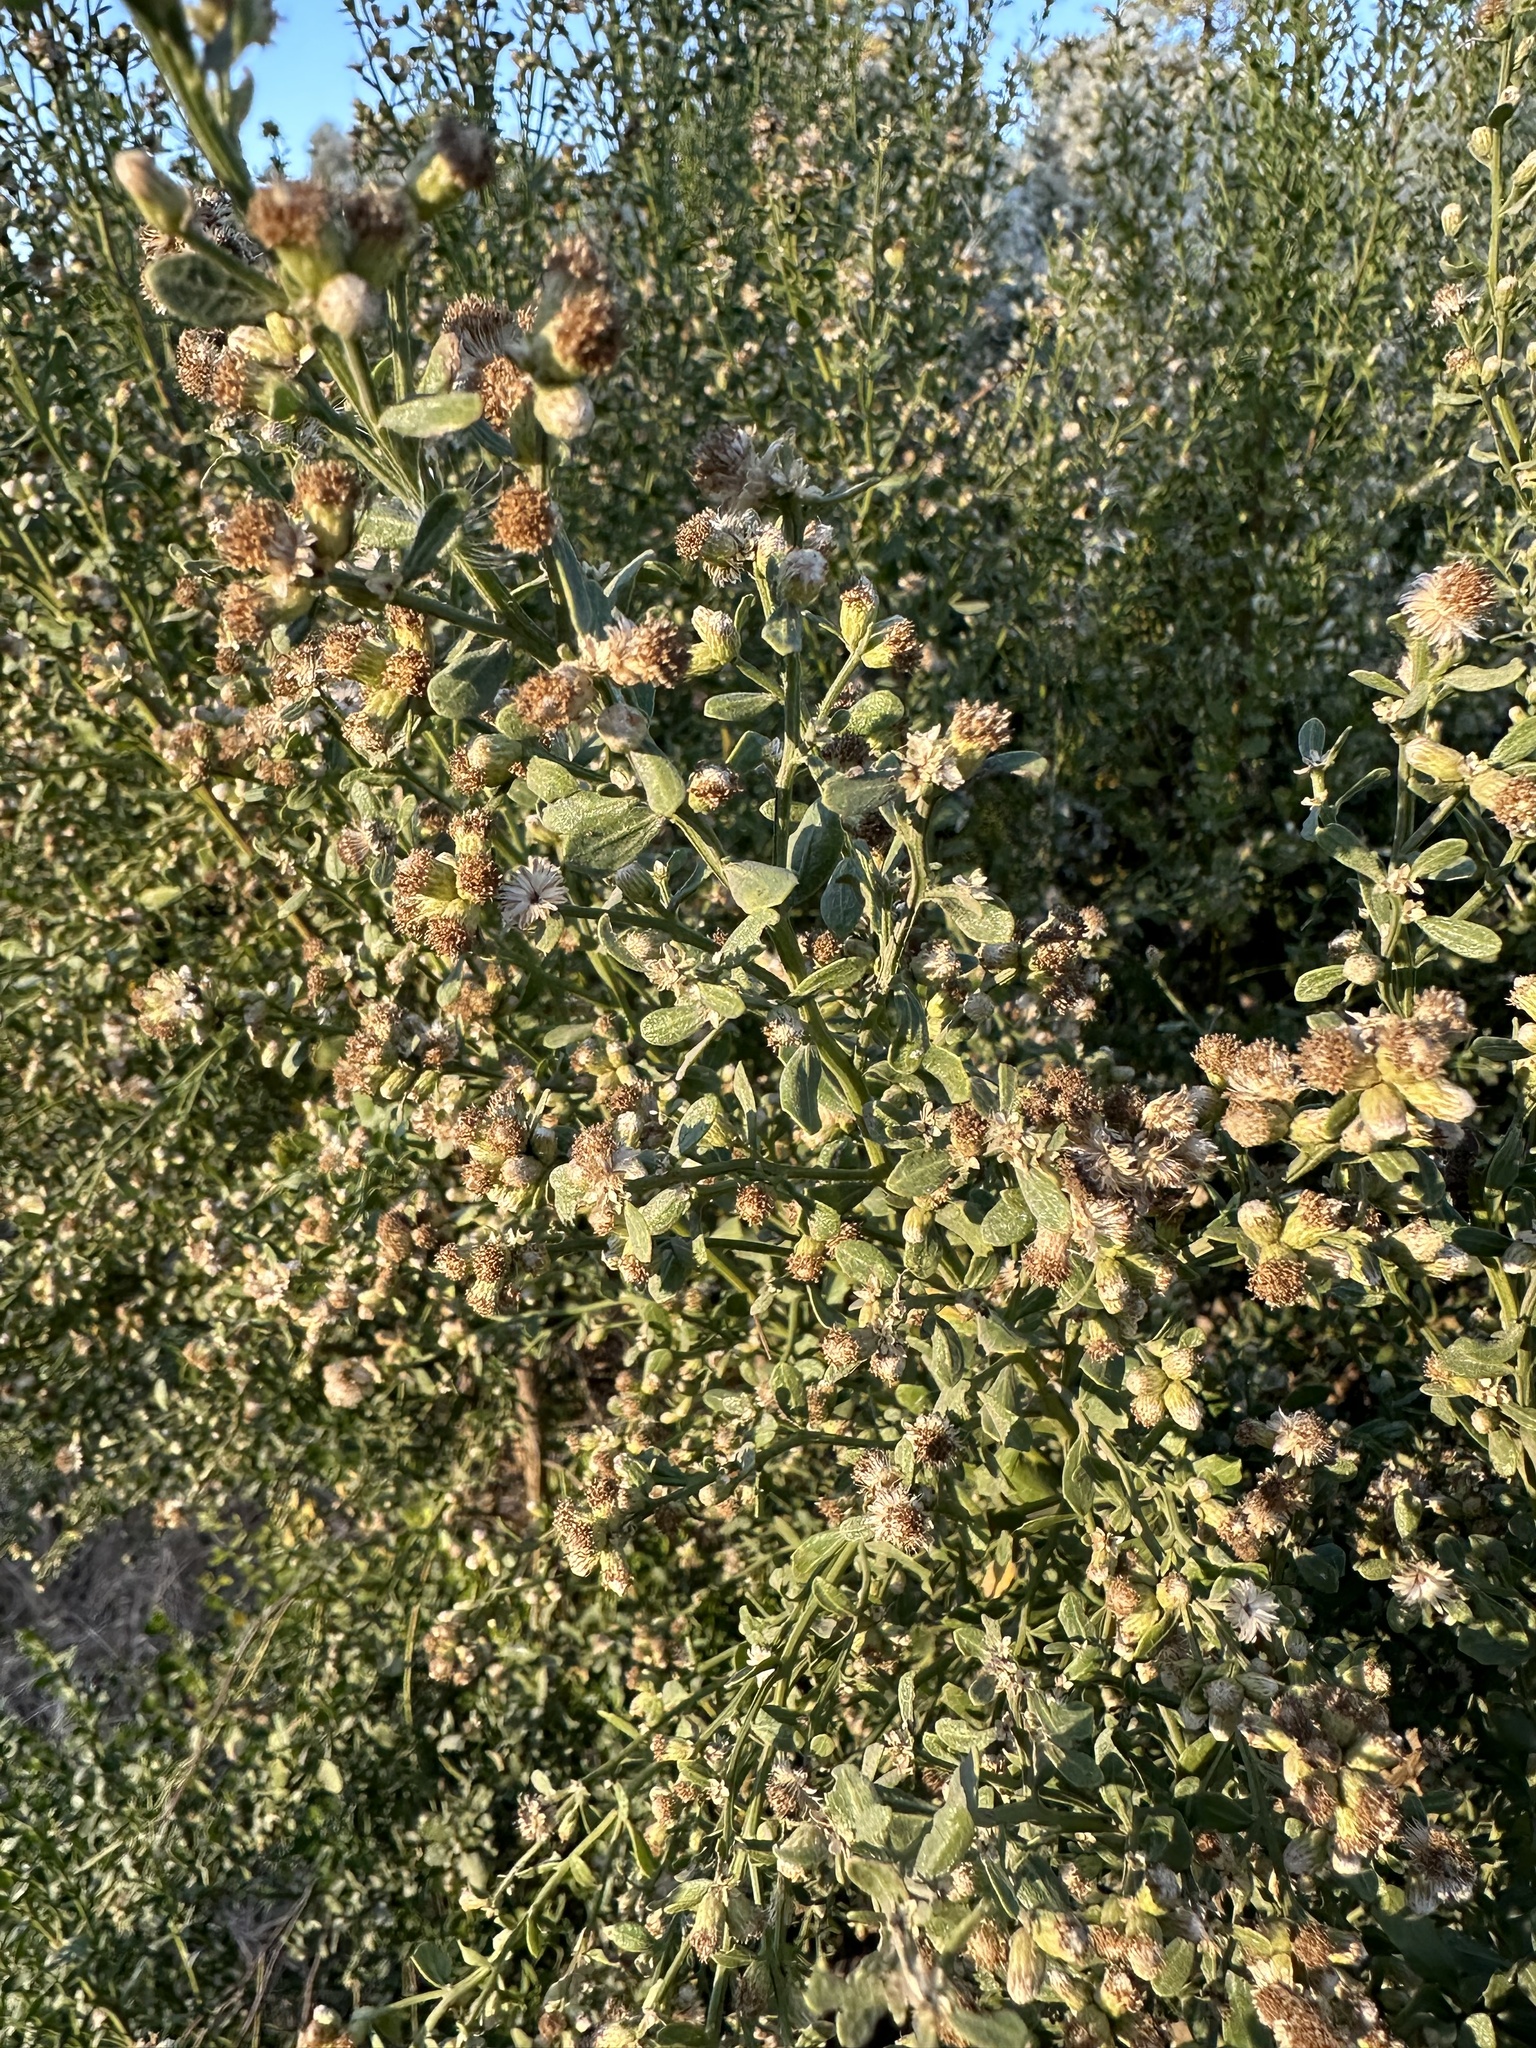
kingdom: Plantae
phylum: Tracheophyta
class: Magnoliopsida
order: Asterales
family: Asteraceae
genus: Baccharis
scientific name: Baccharis pilularis
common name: Coyotebrush
